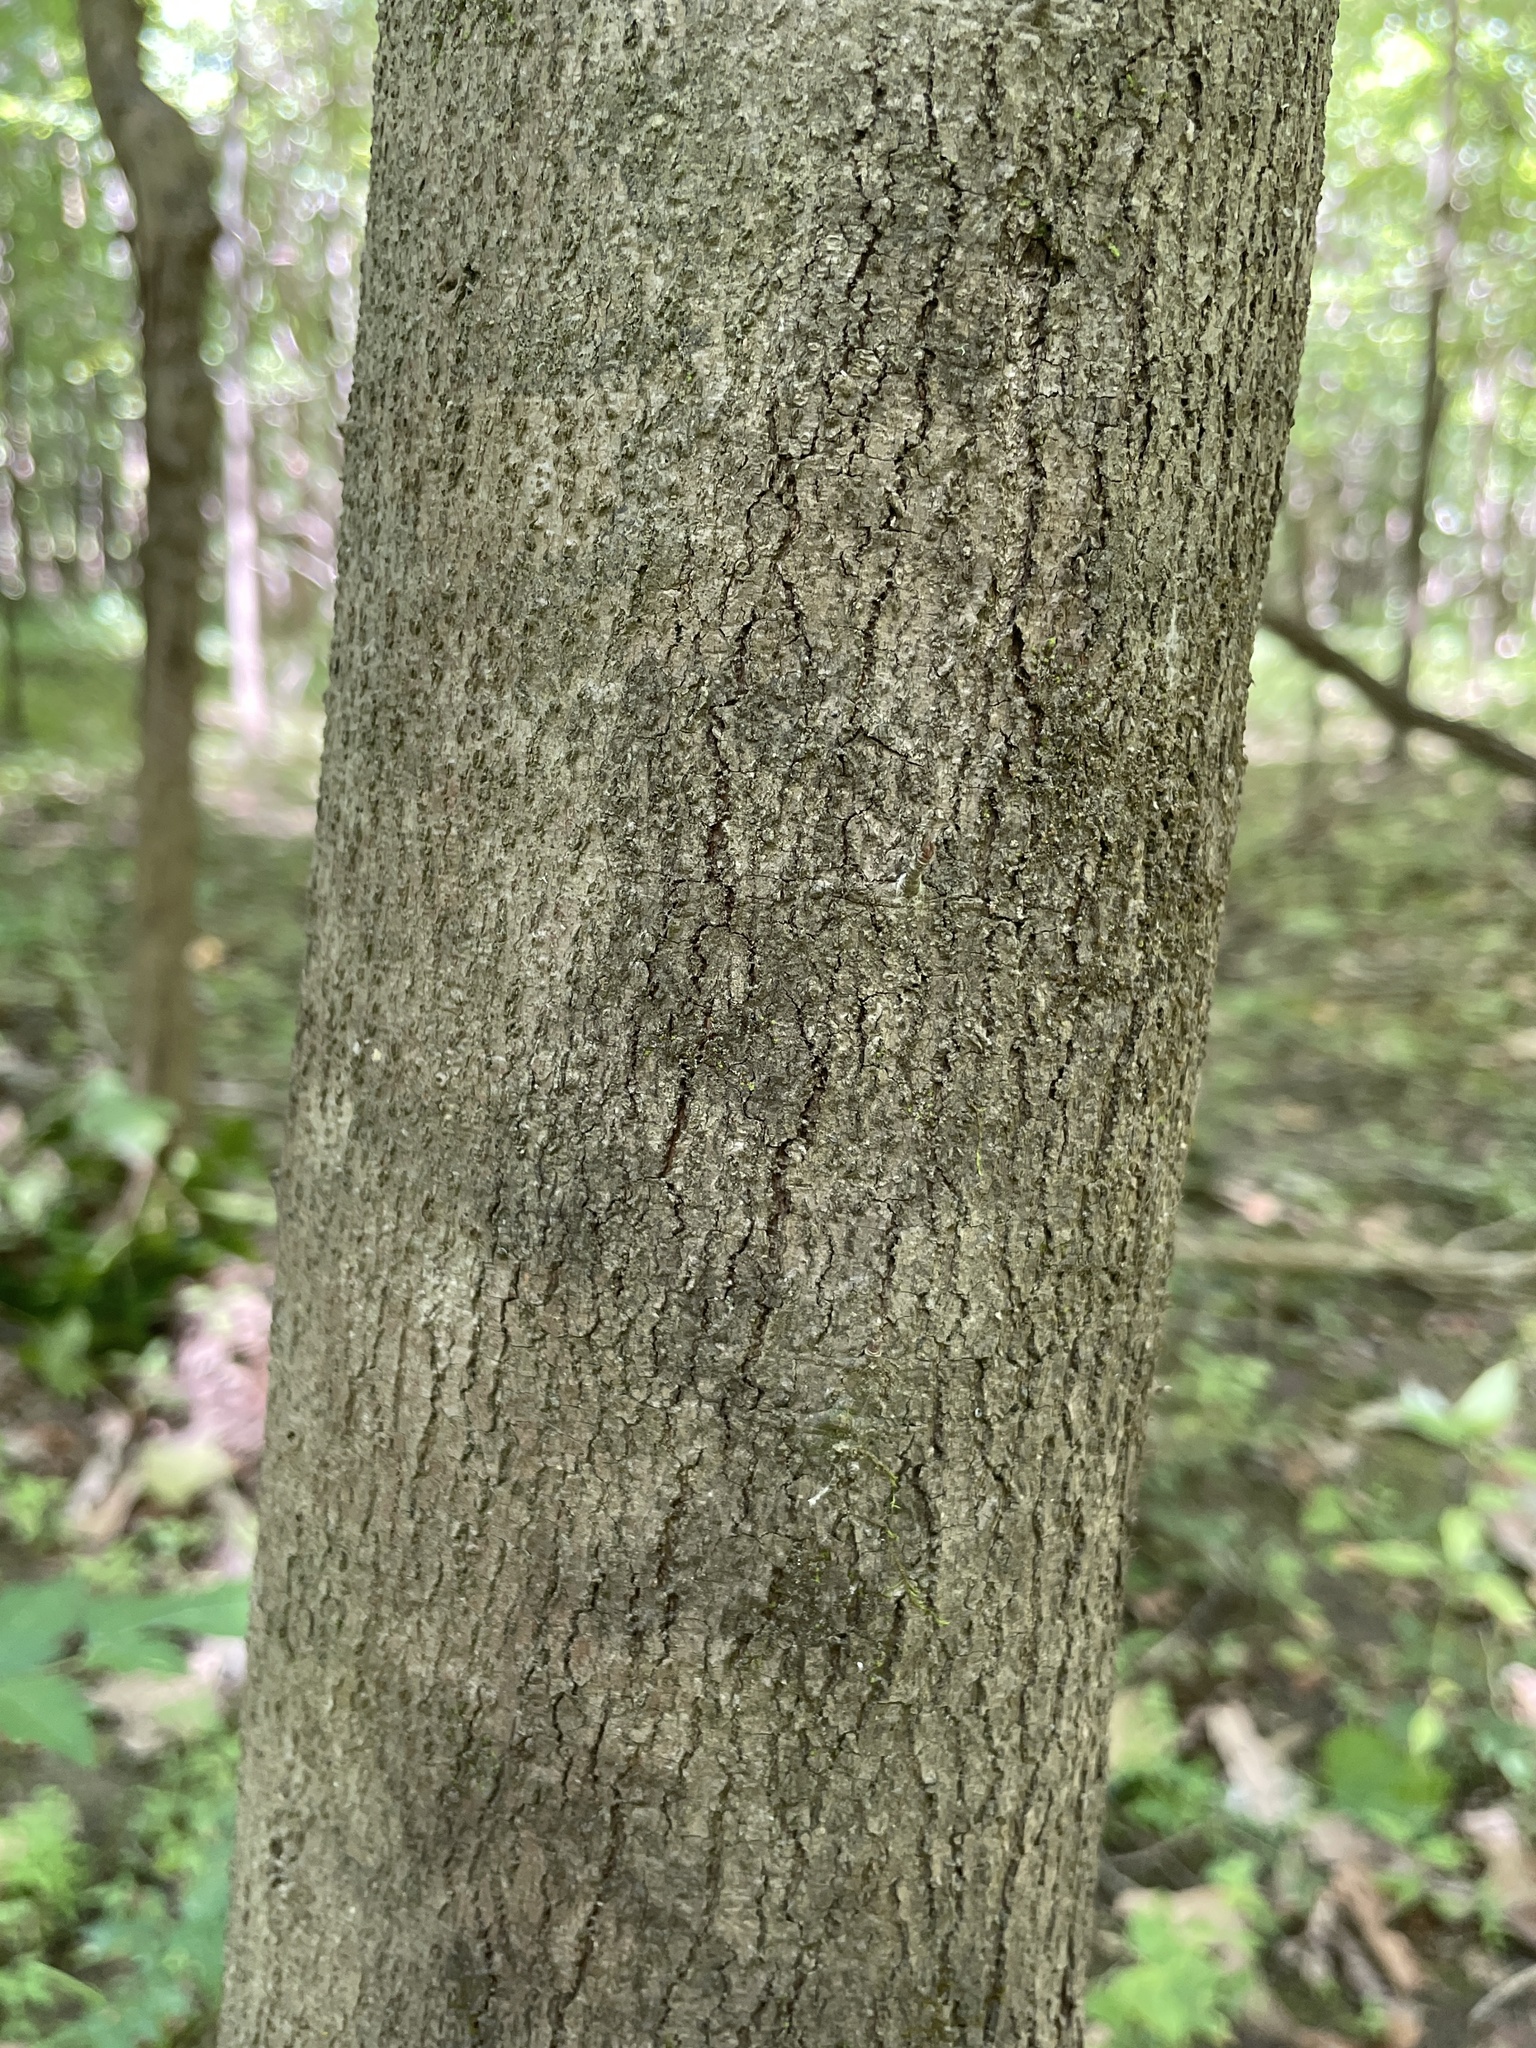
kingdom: Plantae
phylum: Tracheophyta
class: Magnoliopsida
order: Sapindales
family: Sapindaceae
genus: Acer
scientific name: Acer rubrum
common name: Red maple
